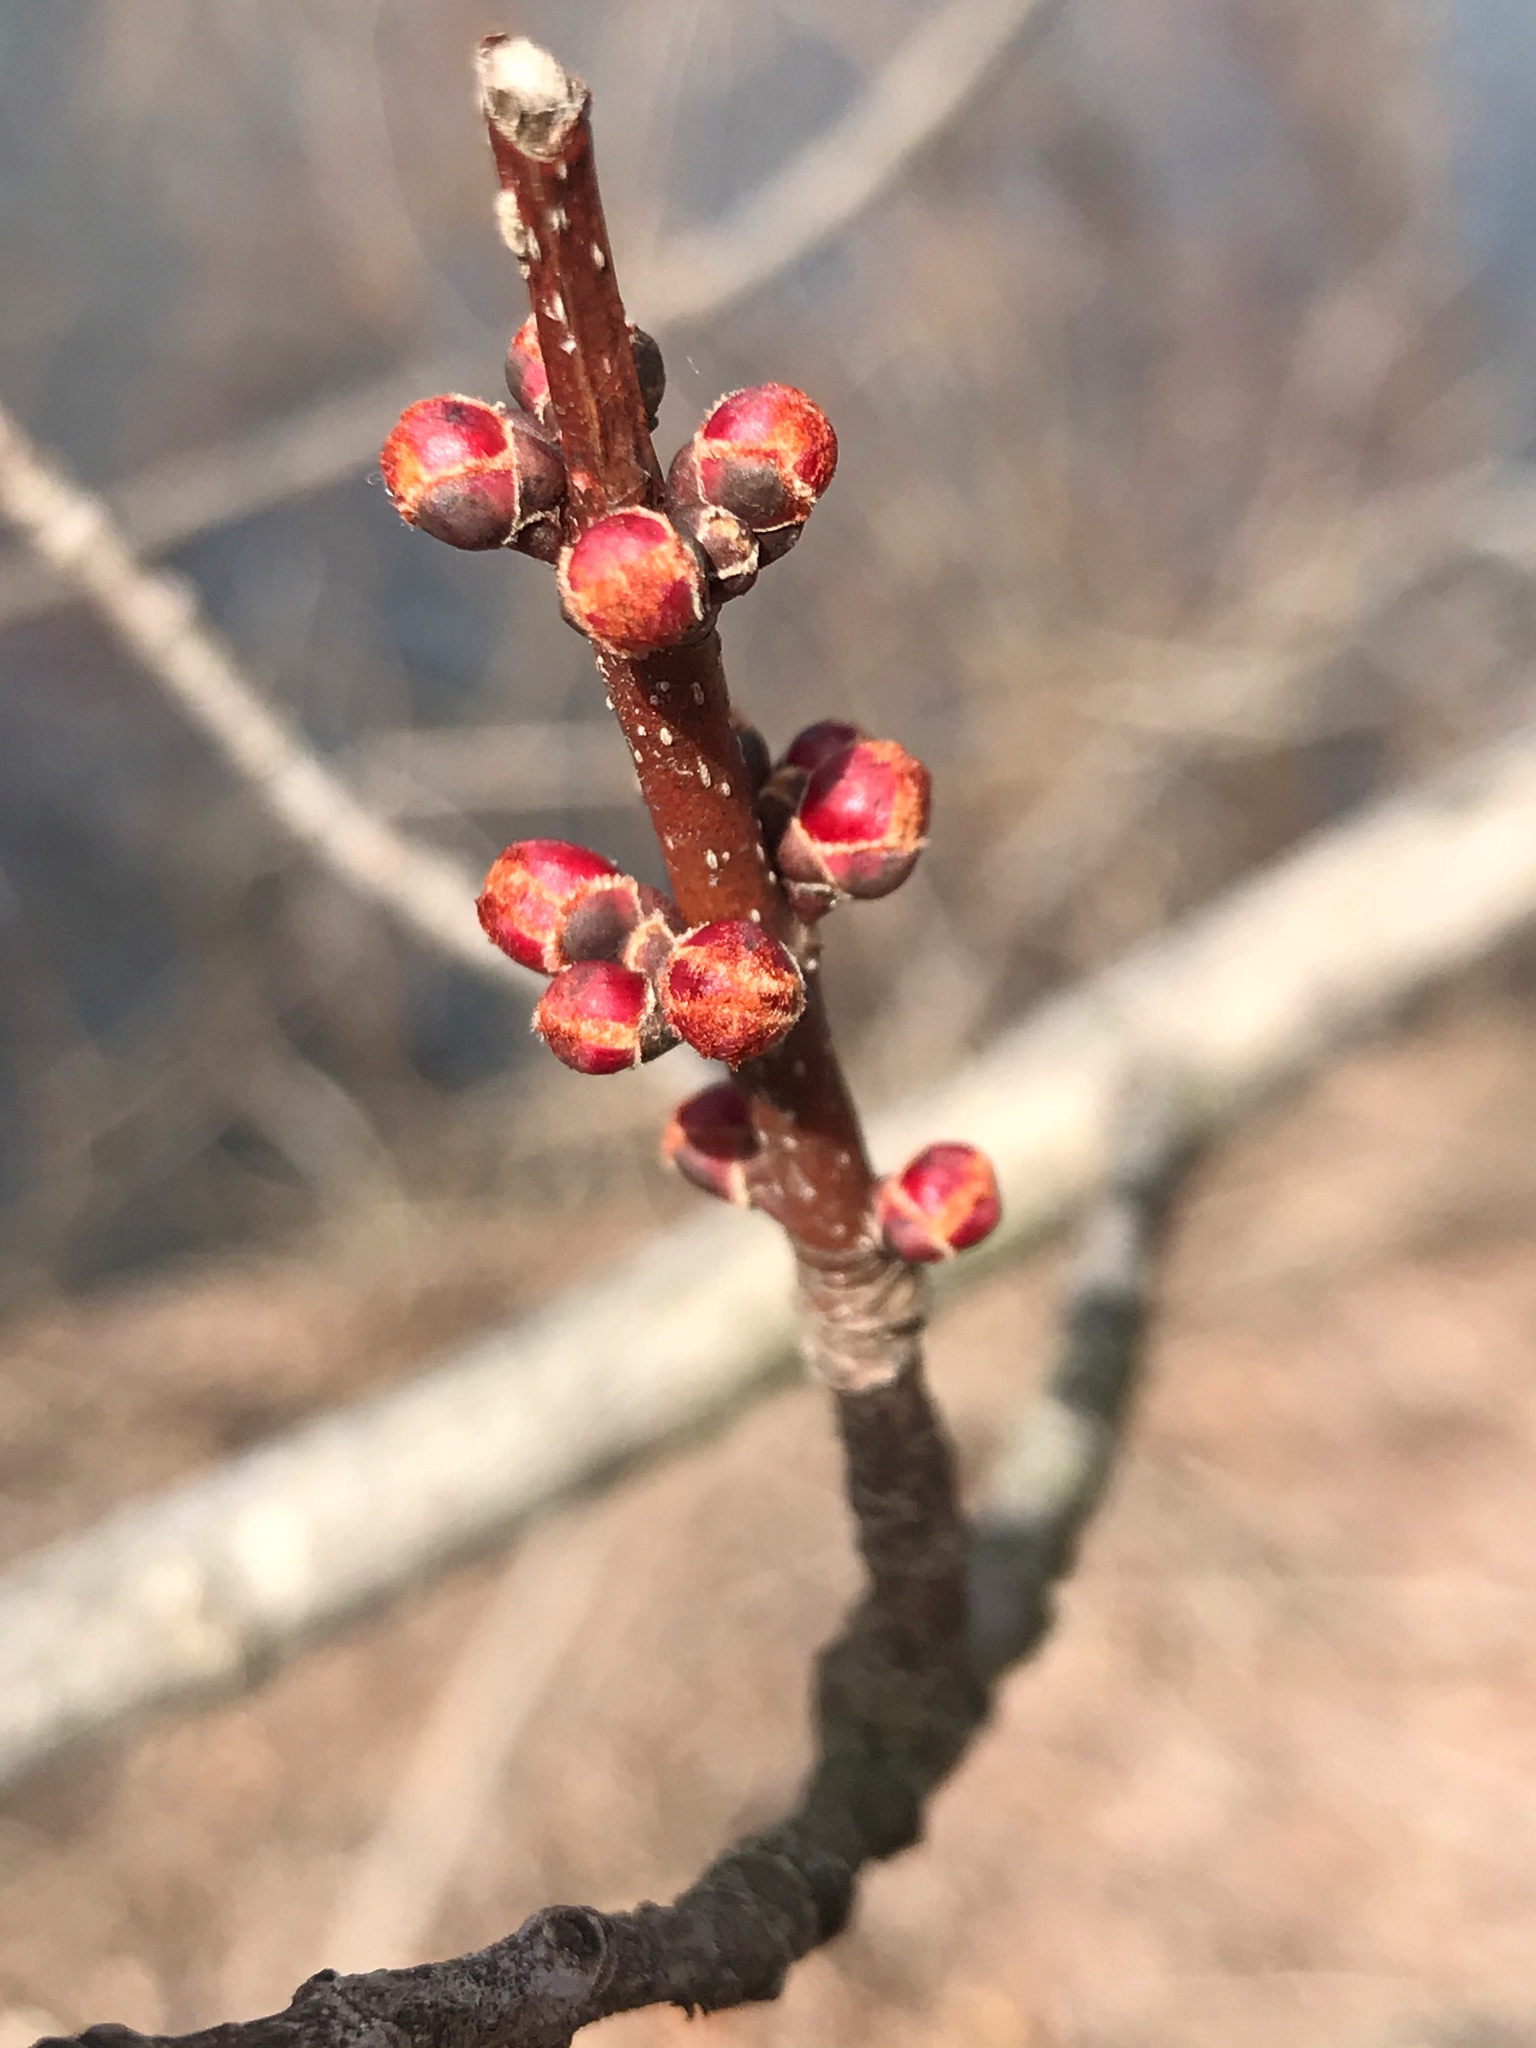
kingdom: Plantae
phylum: Tracheophyta
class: Magnoliopsida
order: Sapindales
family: Sapindaceae
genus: Acer
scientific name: Acer rubrum
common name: Red maple
